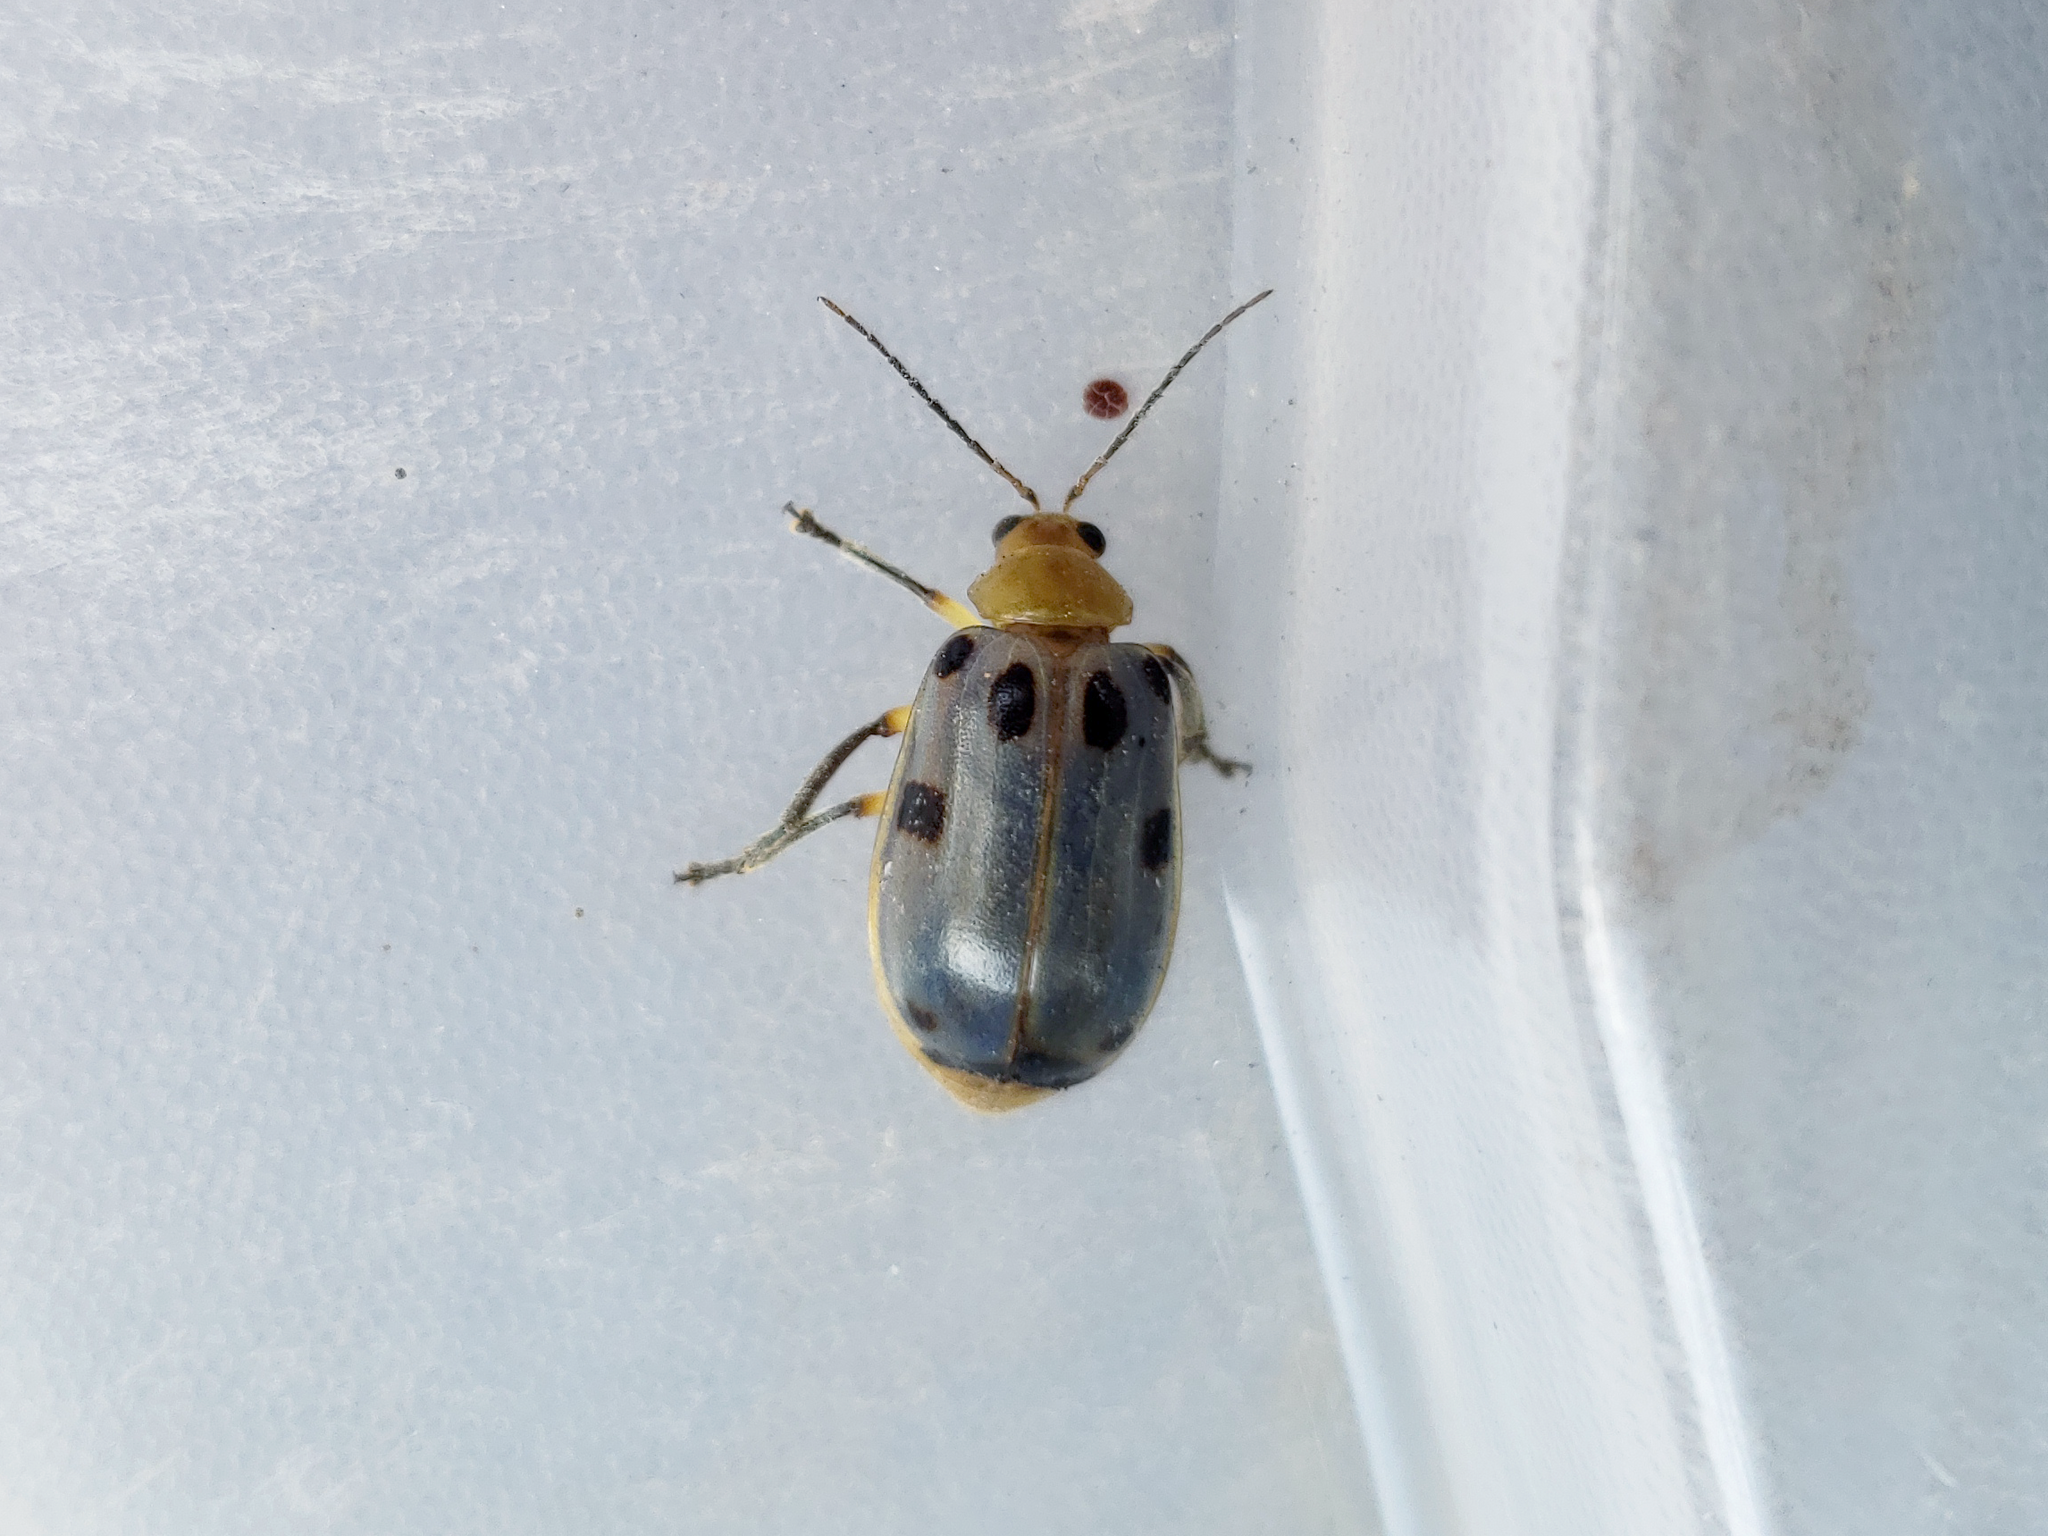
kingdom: Animalia
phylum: Arthropoda
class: Insecta
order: Coleoptera
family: Chrysomelidae
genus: Exora
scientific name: Exora obsoleta
